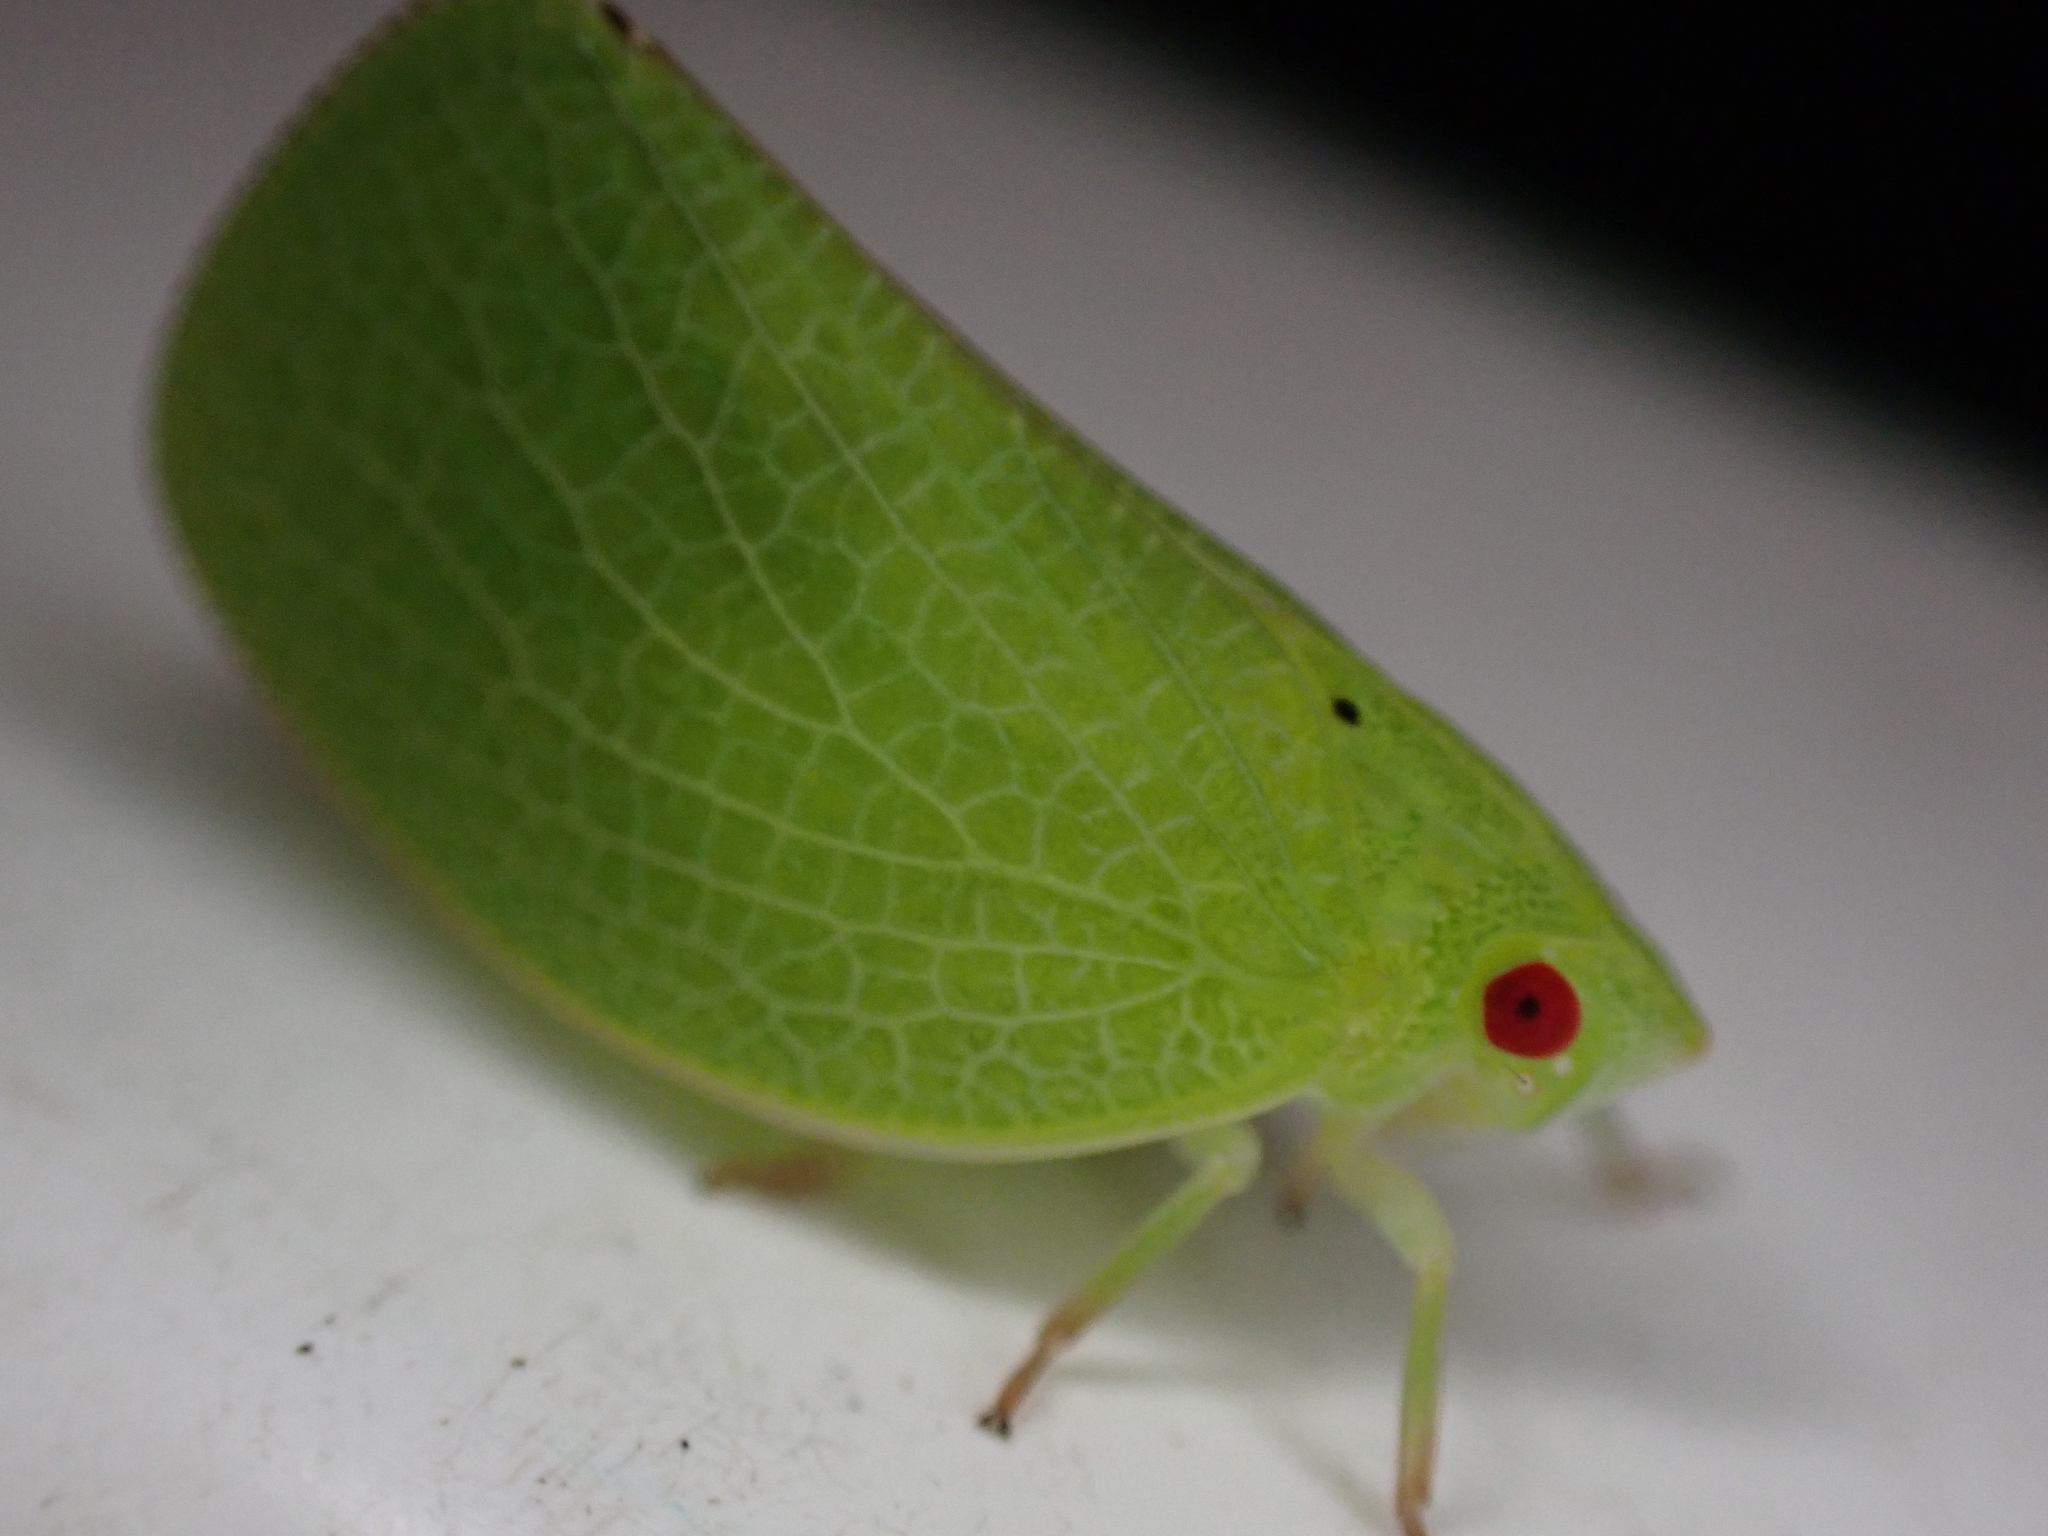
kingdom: Animalia
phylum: Arthropoda
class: Insecta
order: Hemiptera
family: Acanaloniidae
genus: Acanalonia
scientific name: Acanalonia conica
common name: Green cone-headed planthopper
